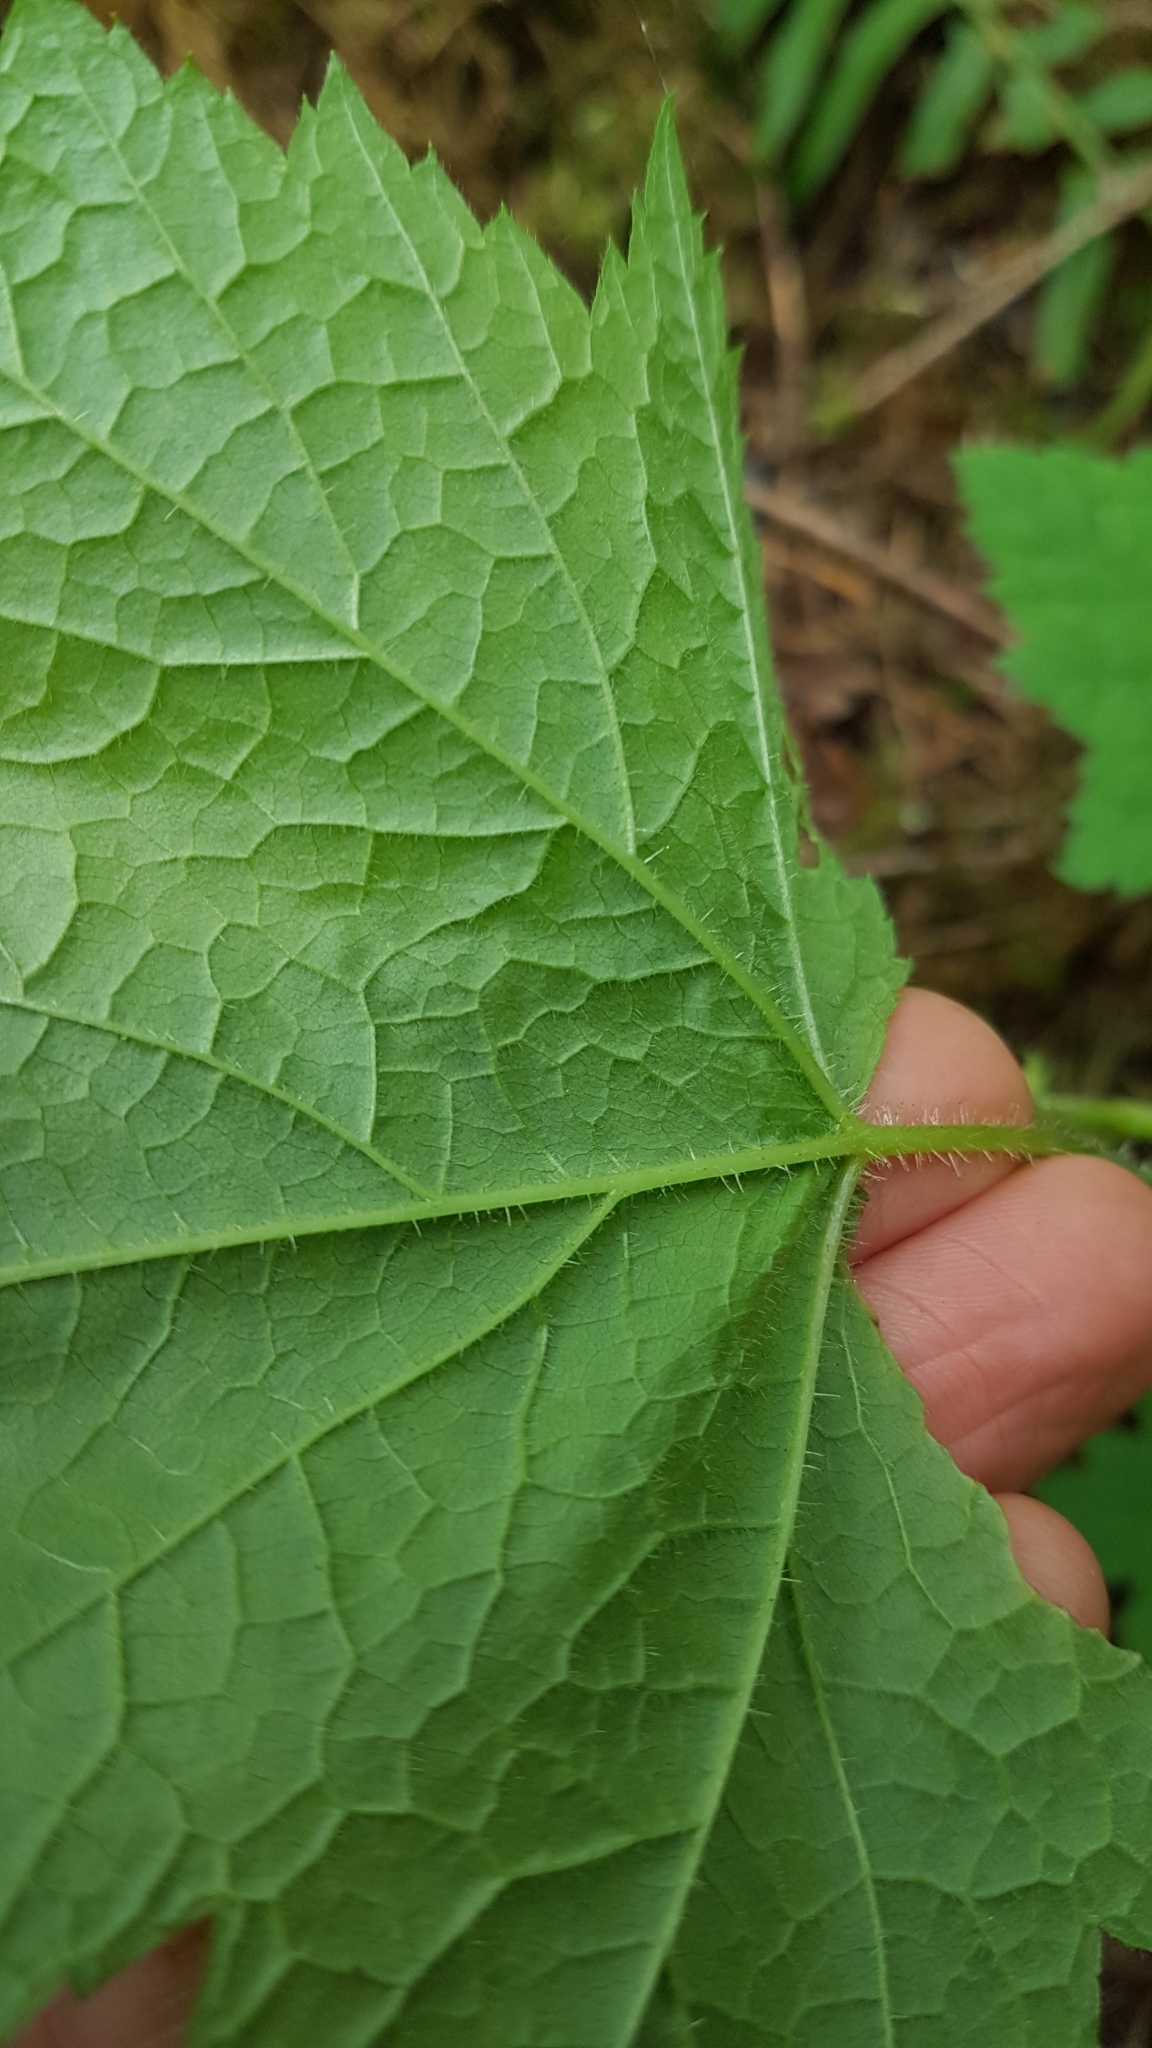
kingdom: Plantae
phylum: Tracheophyta
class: Magnoliopsida
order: Rosales
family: Rosaceae
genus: Rubus
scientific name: Rubus parviflorus
